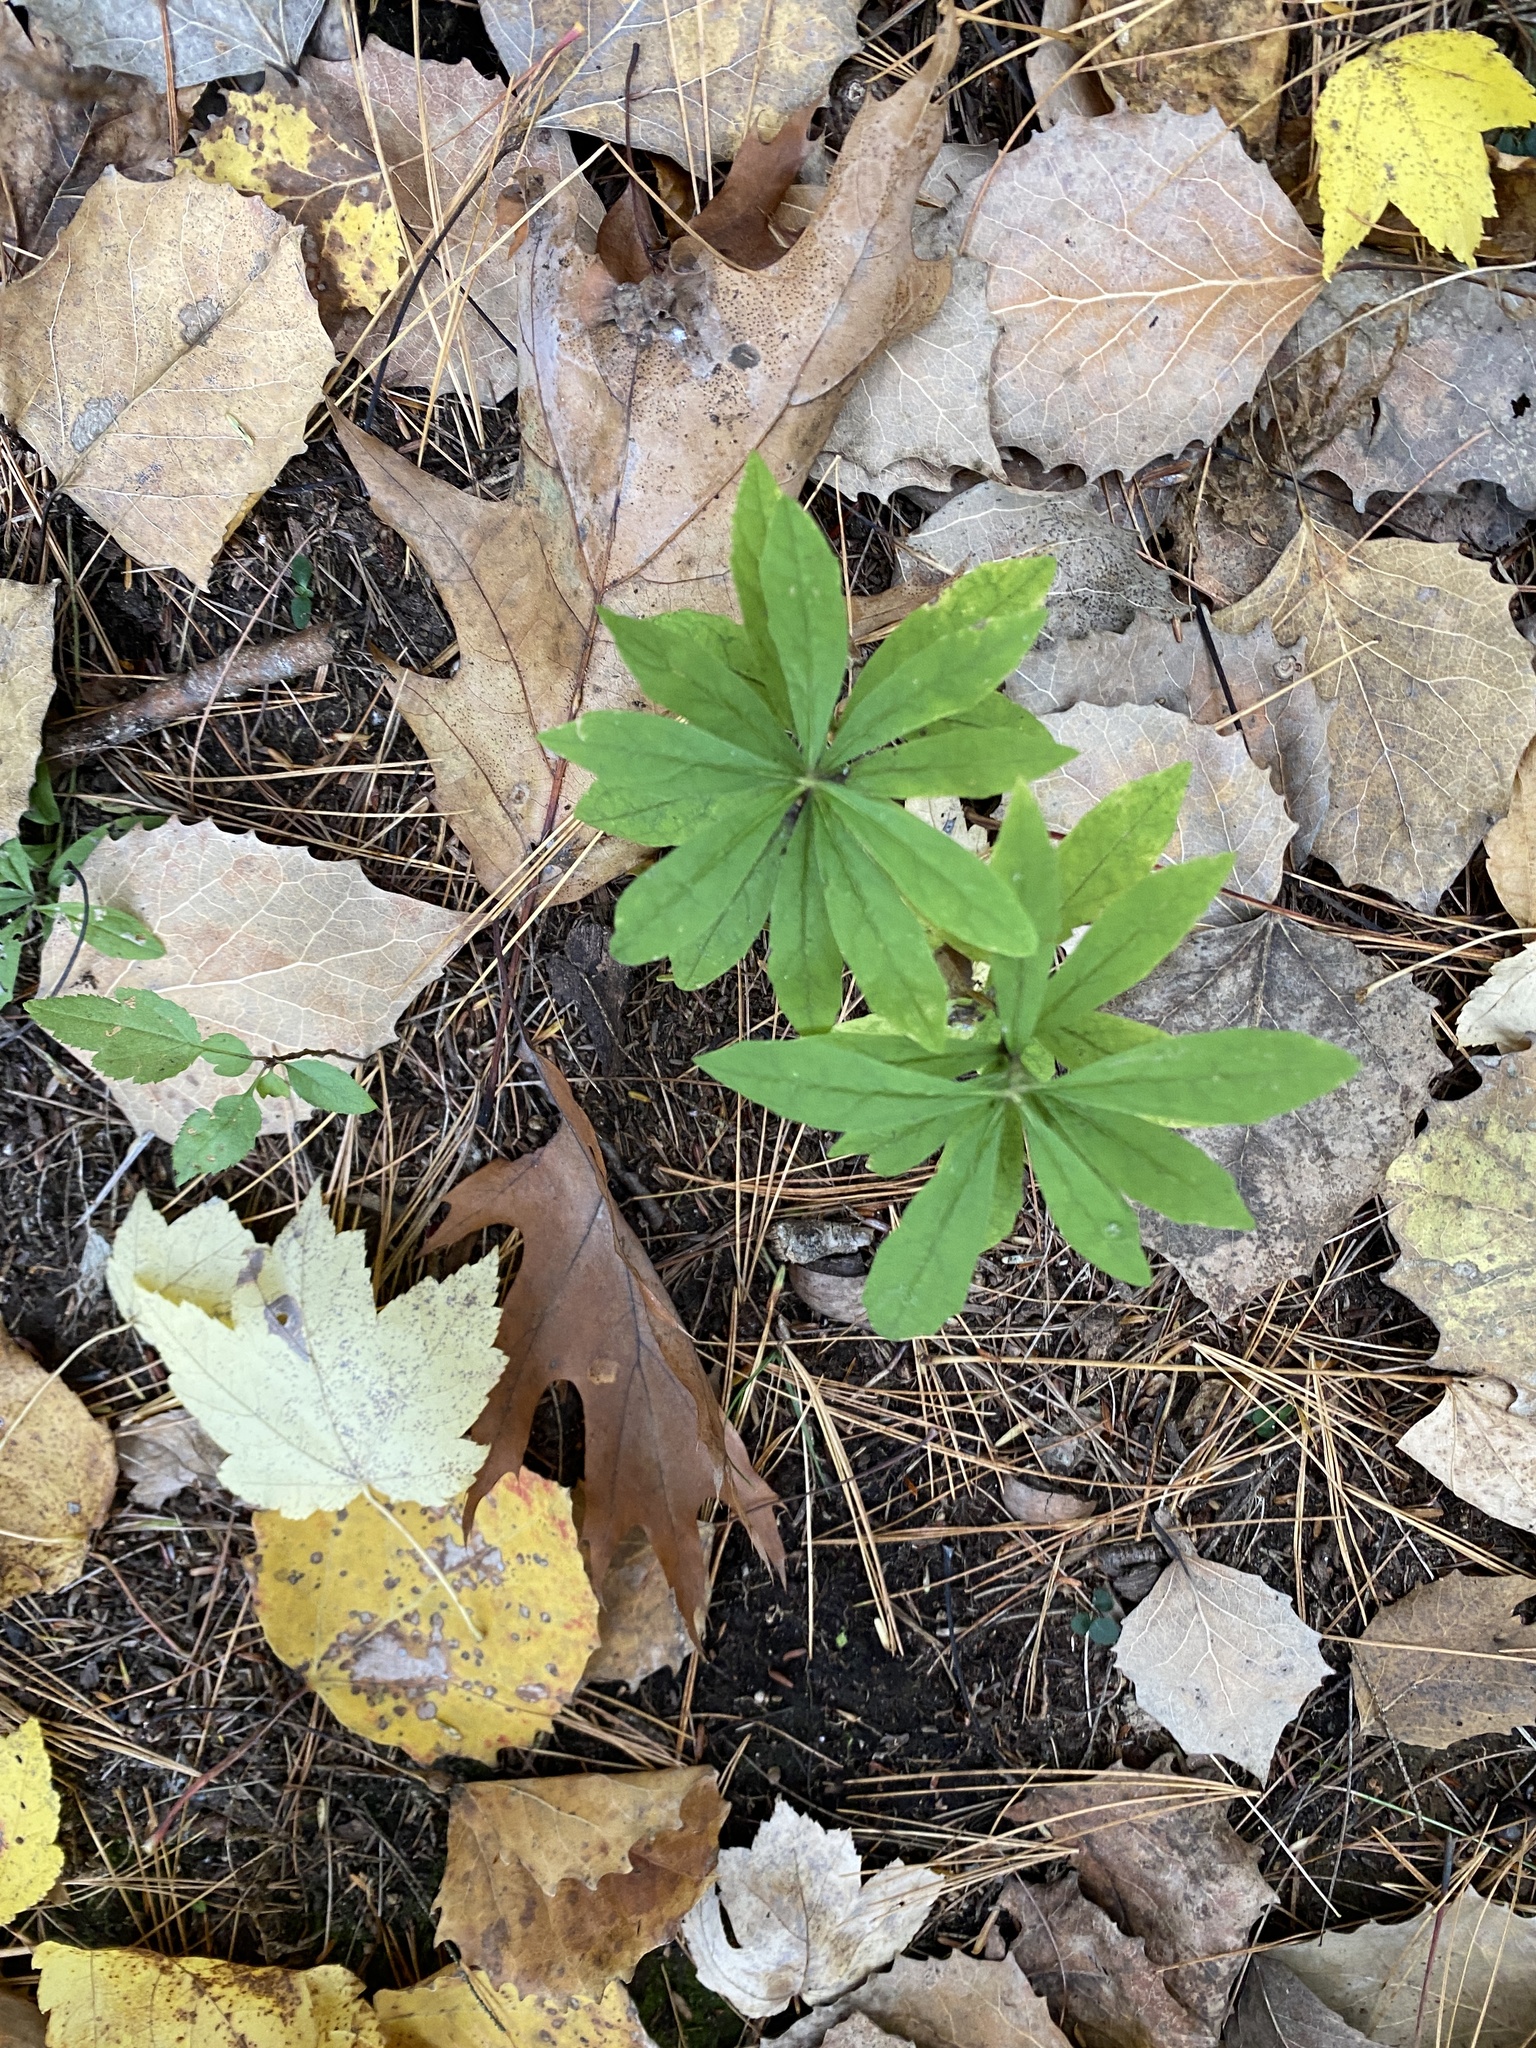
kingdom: Plantae
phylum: Tracheophyta
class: Magnoliopsida
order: Asterales
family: Asteraceae
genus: Oclemena
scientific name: Oclemena acuminata
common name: Mountain aster
